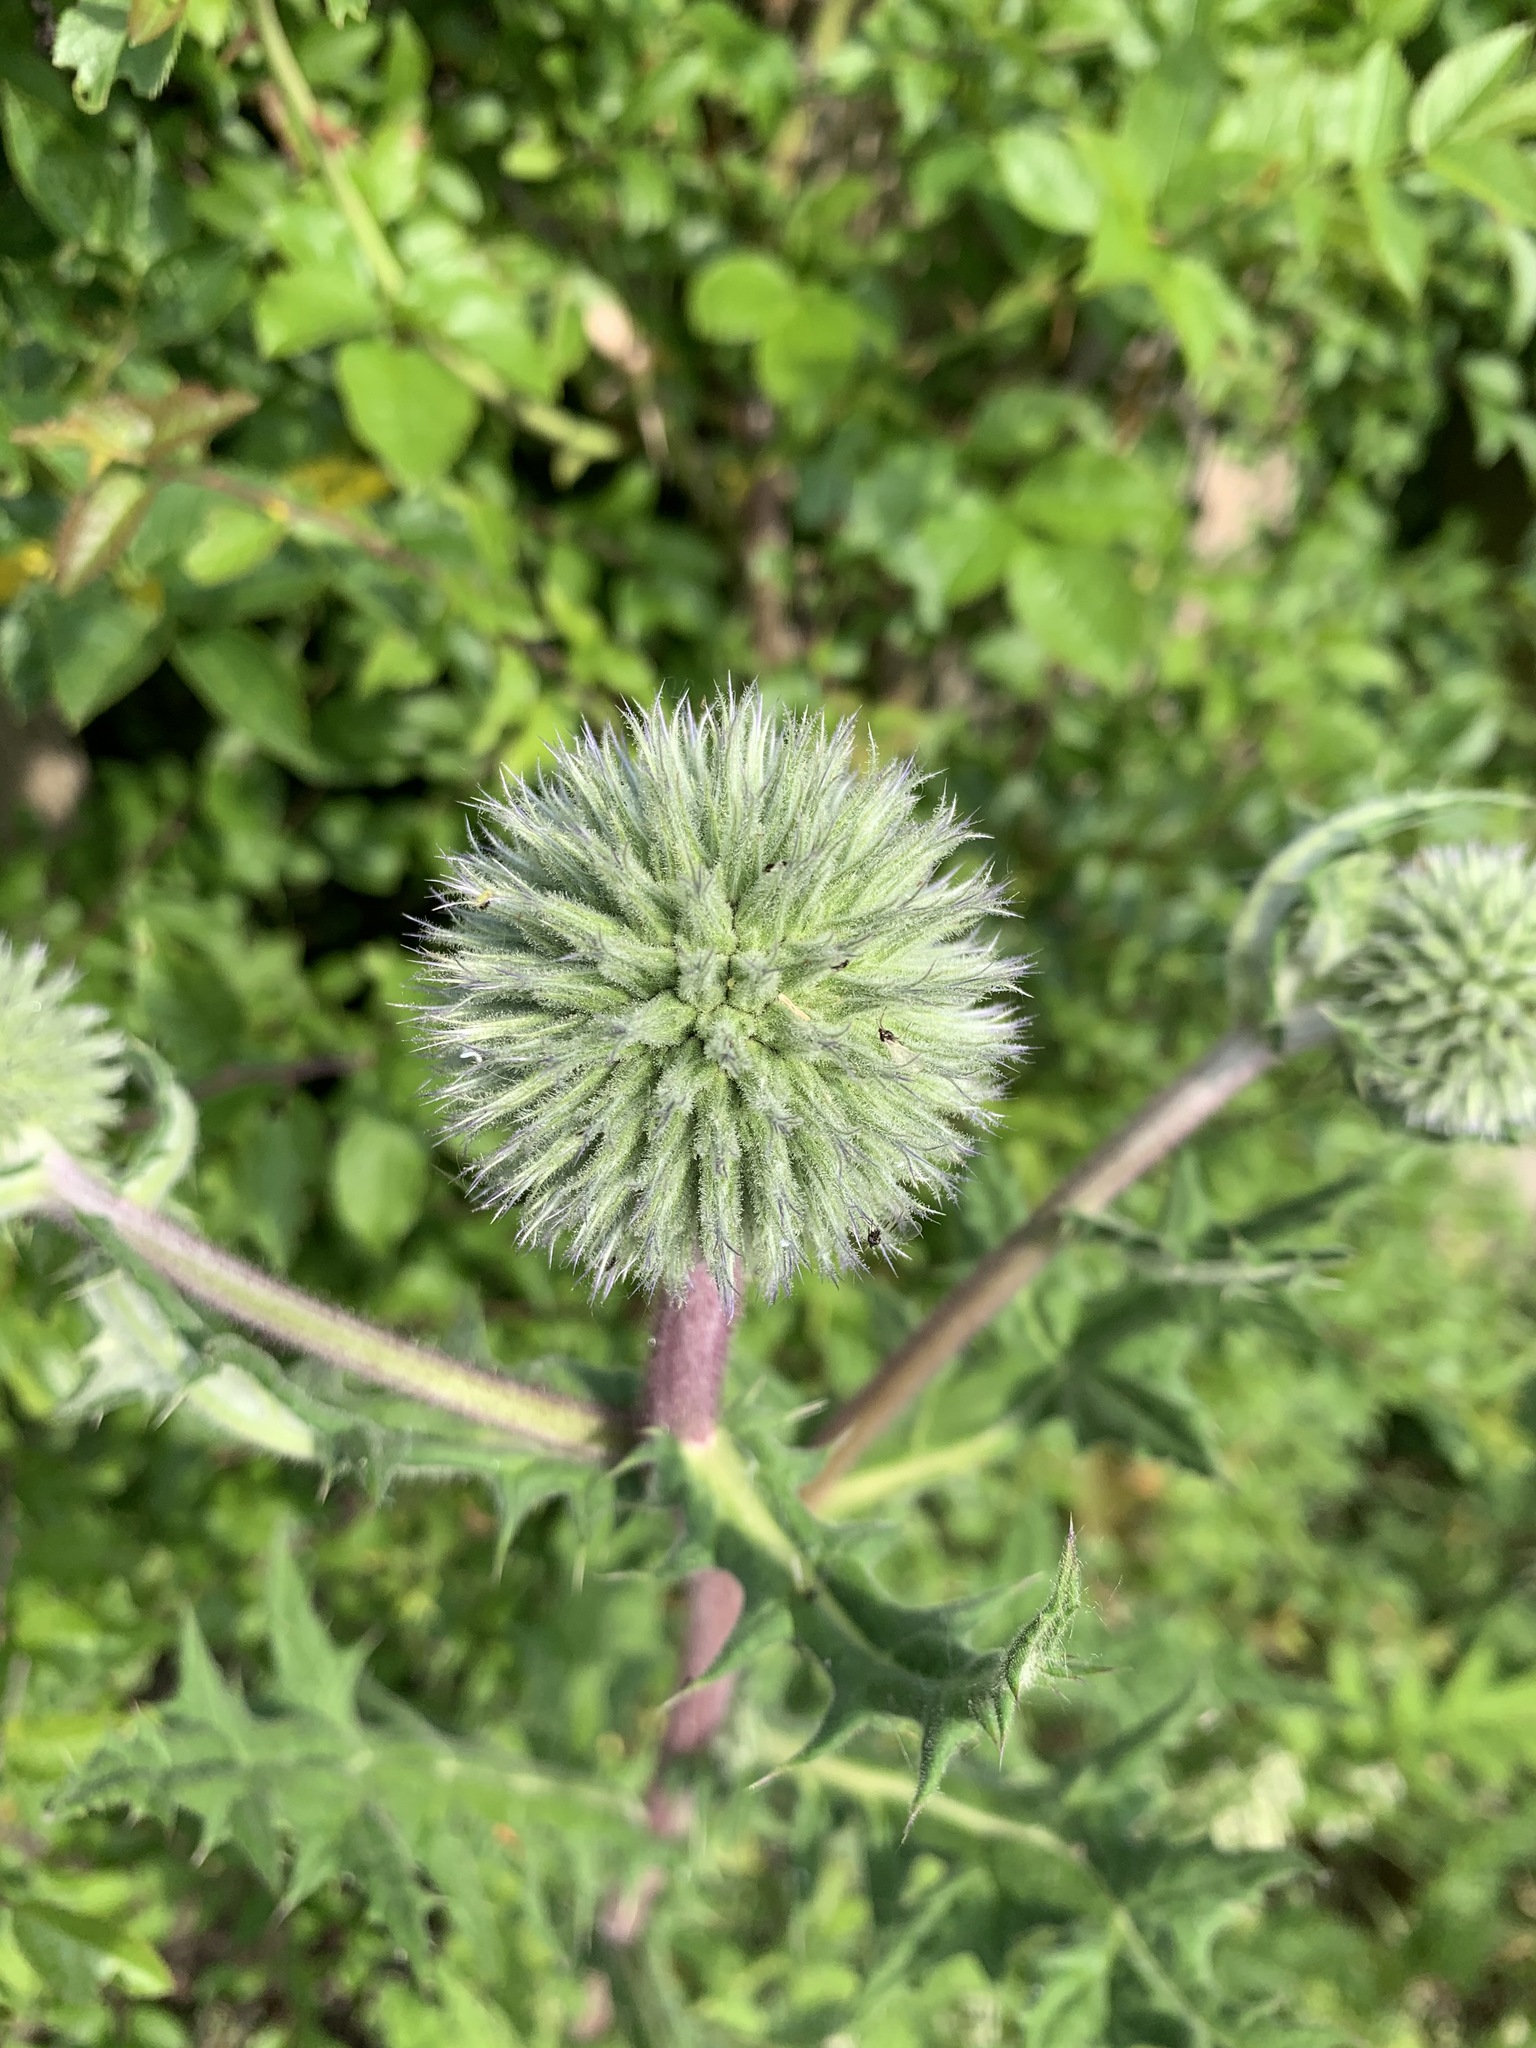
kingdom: Plantae
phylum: Tracheophyta
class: Magnoliopsida
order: Asterales
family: Asteraceae
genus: Echinops
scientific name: Echinops sphaerocephalus
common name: Glandular globe-thistle
